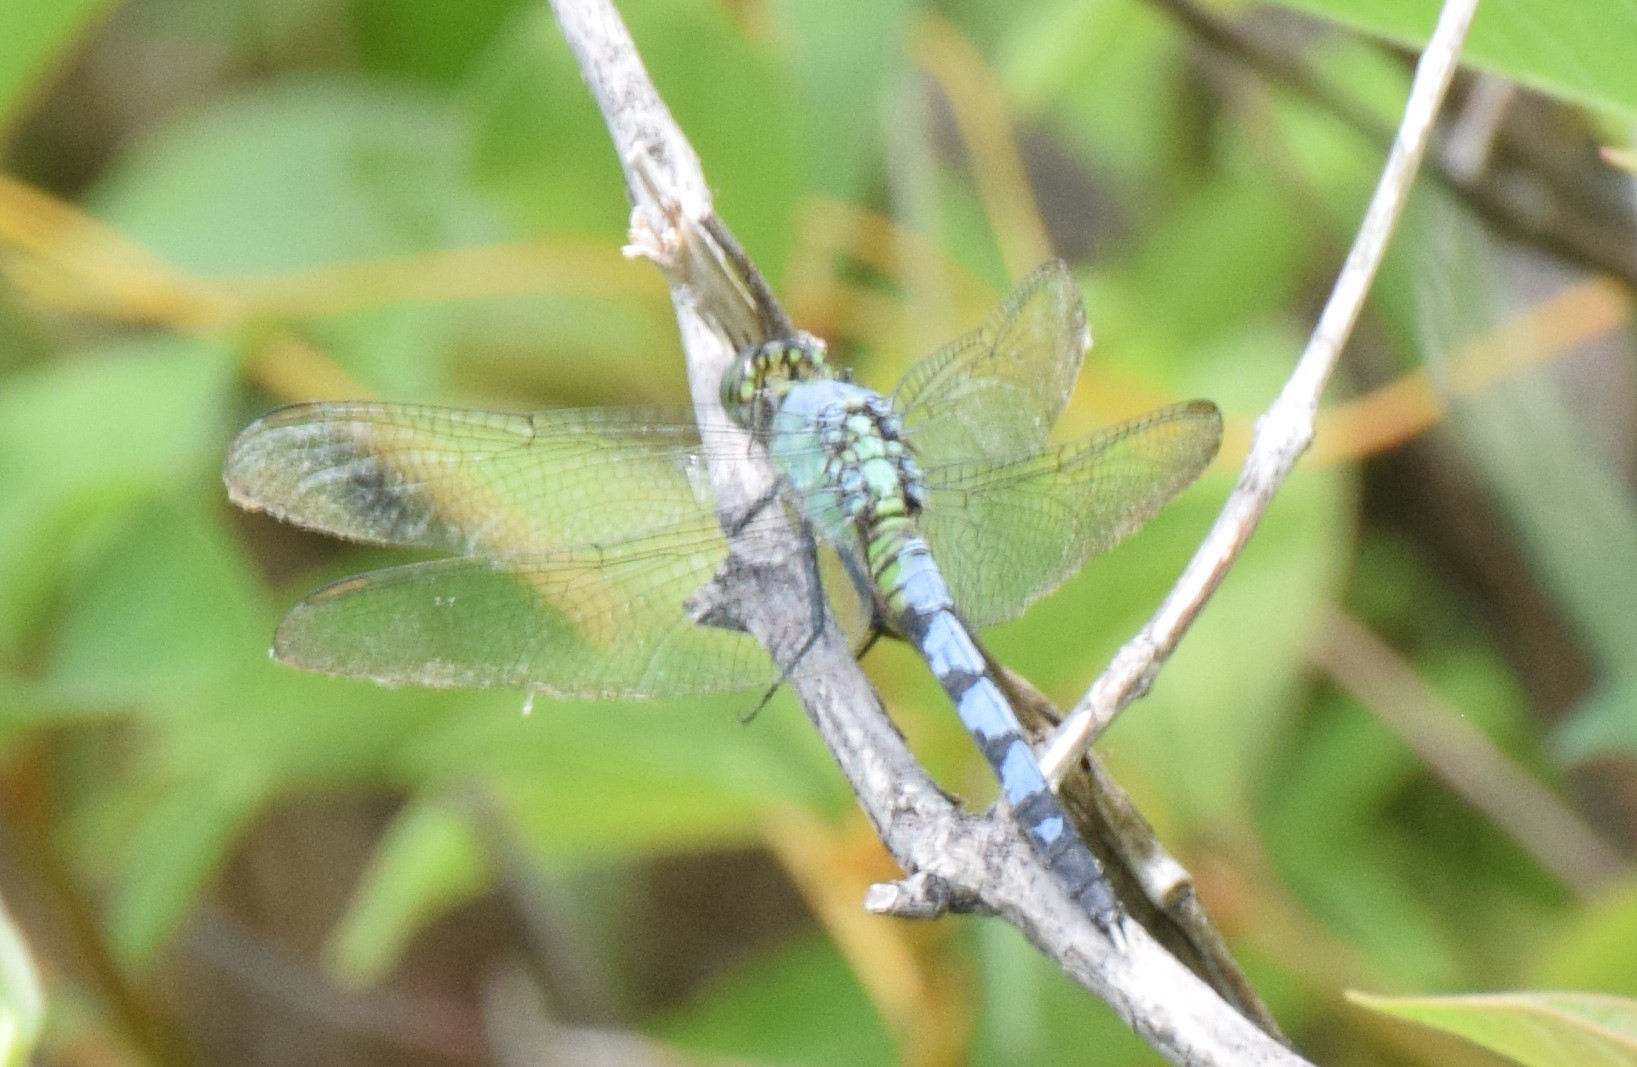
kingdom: Animalia
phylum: Arthropoda
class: Insecta
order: Odonata
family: Libellulidae
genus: Erythemis
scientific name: Erythemis simplicicollis
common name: Eastern pondhawk
